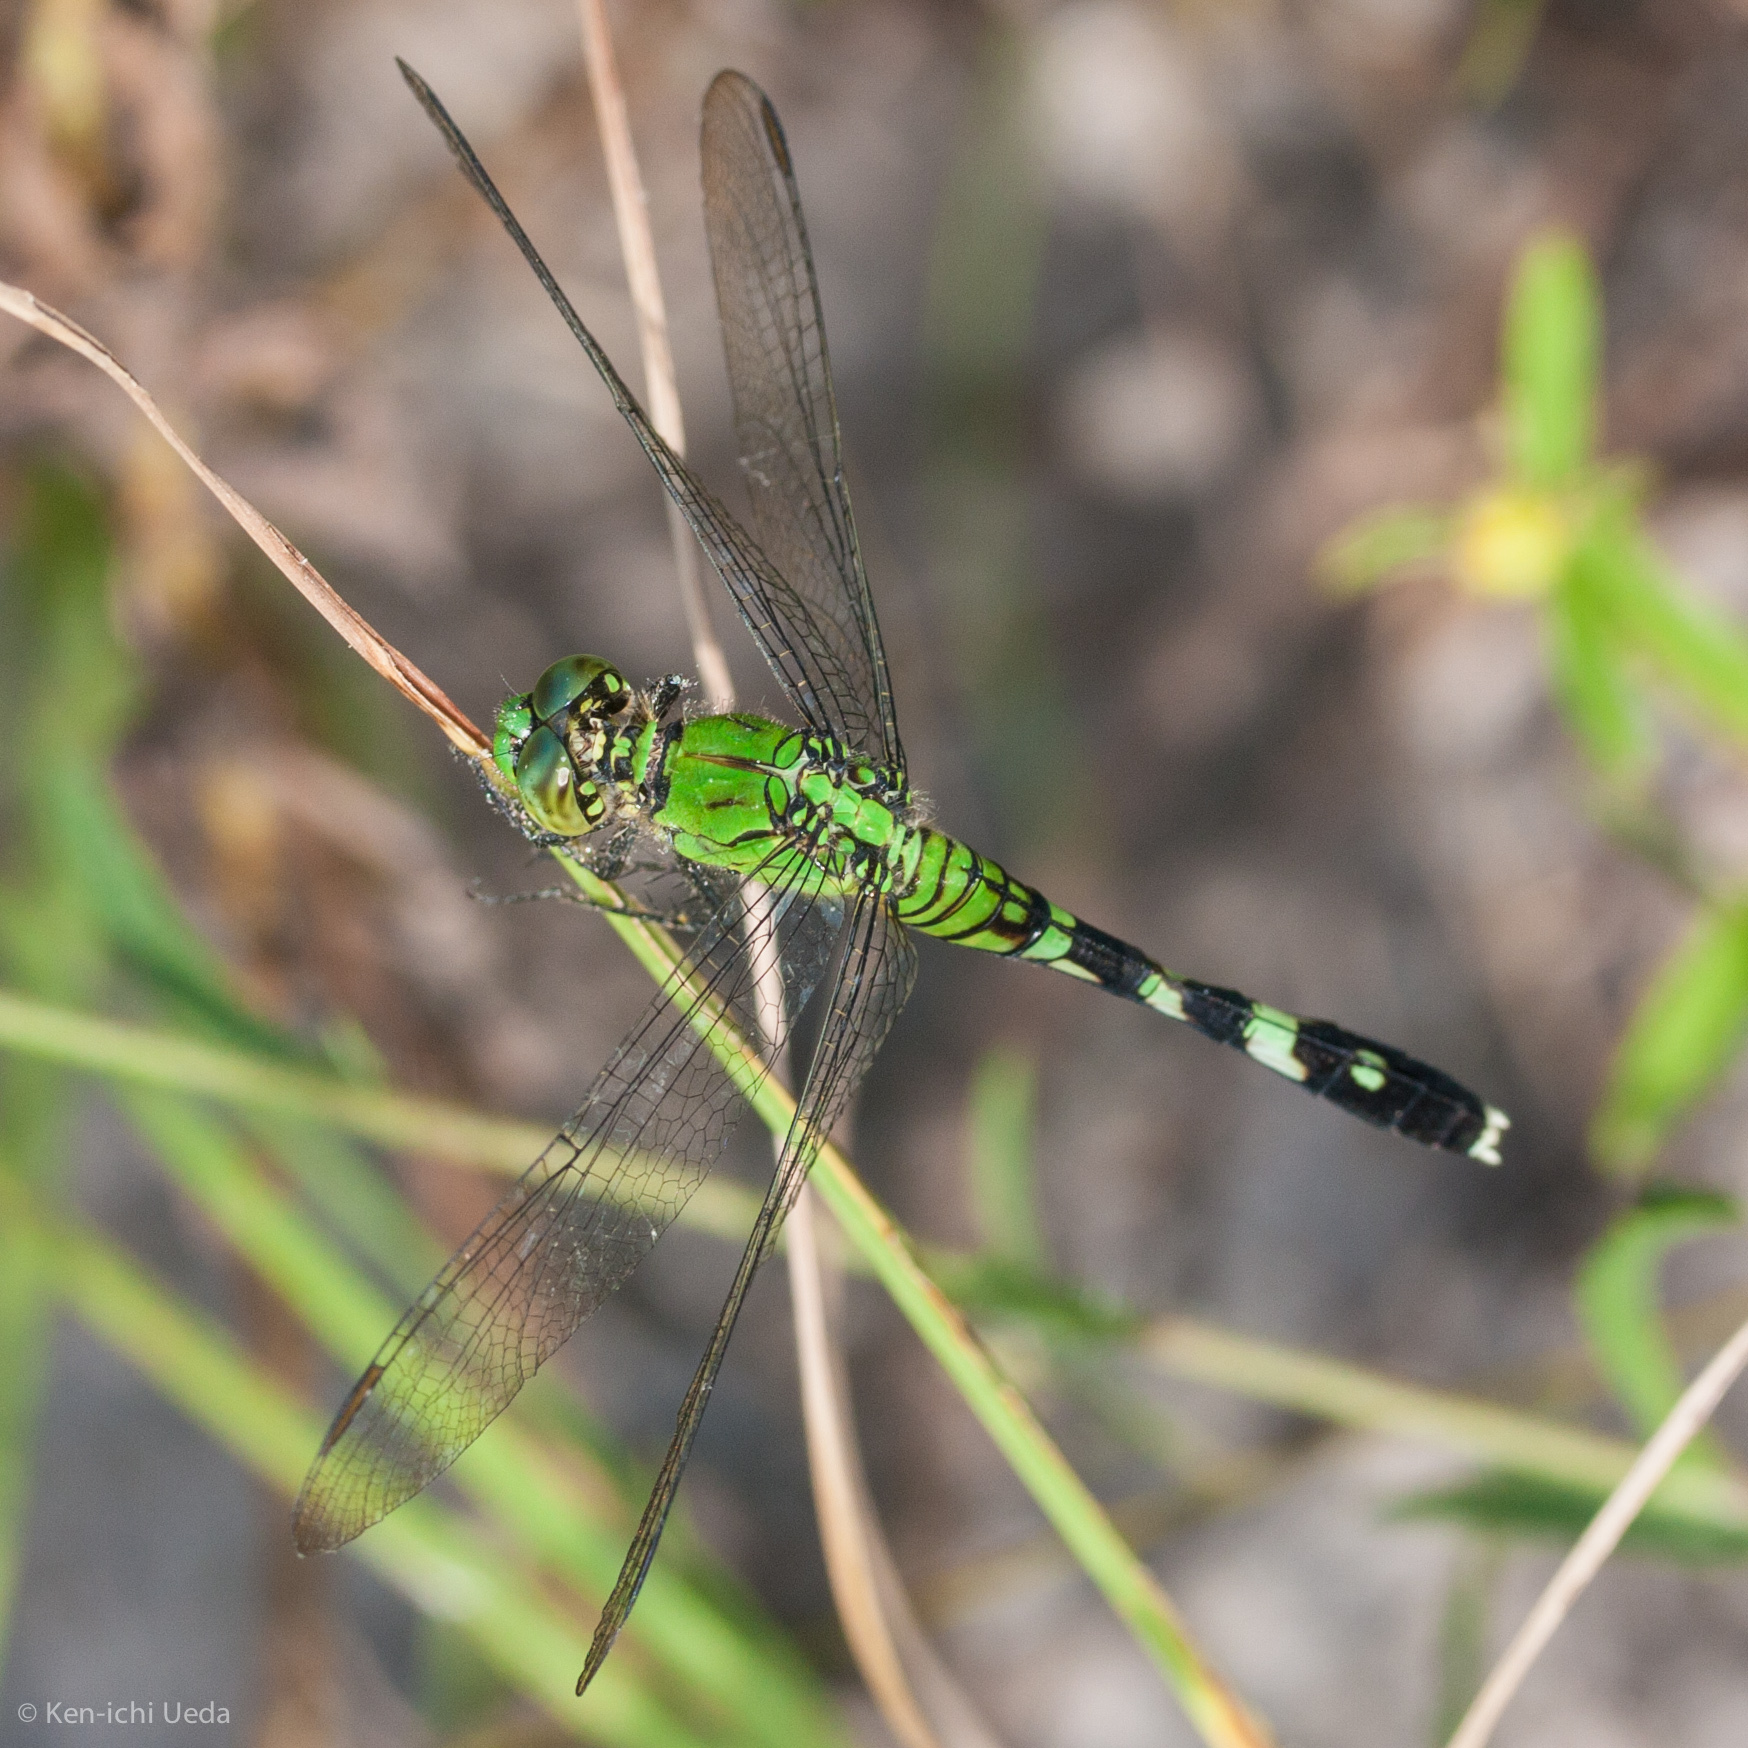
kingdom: Animalia
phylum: Arthropoda
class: Insecta
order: Odonata
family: Libellulidae
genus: Erythemis
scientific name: Erythemis simplicicollis
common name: Eastern pondhawk
